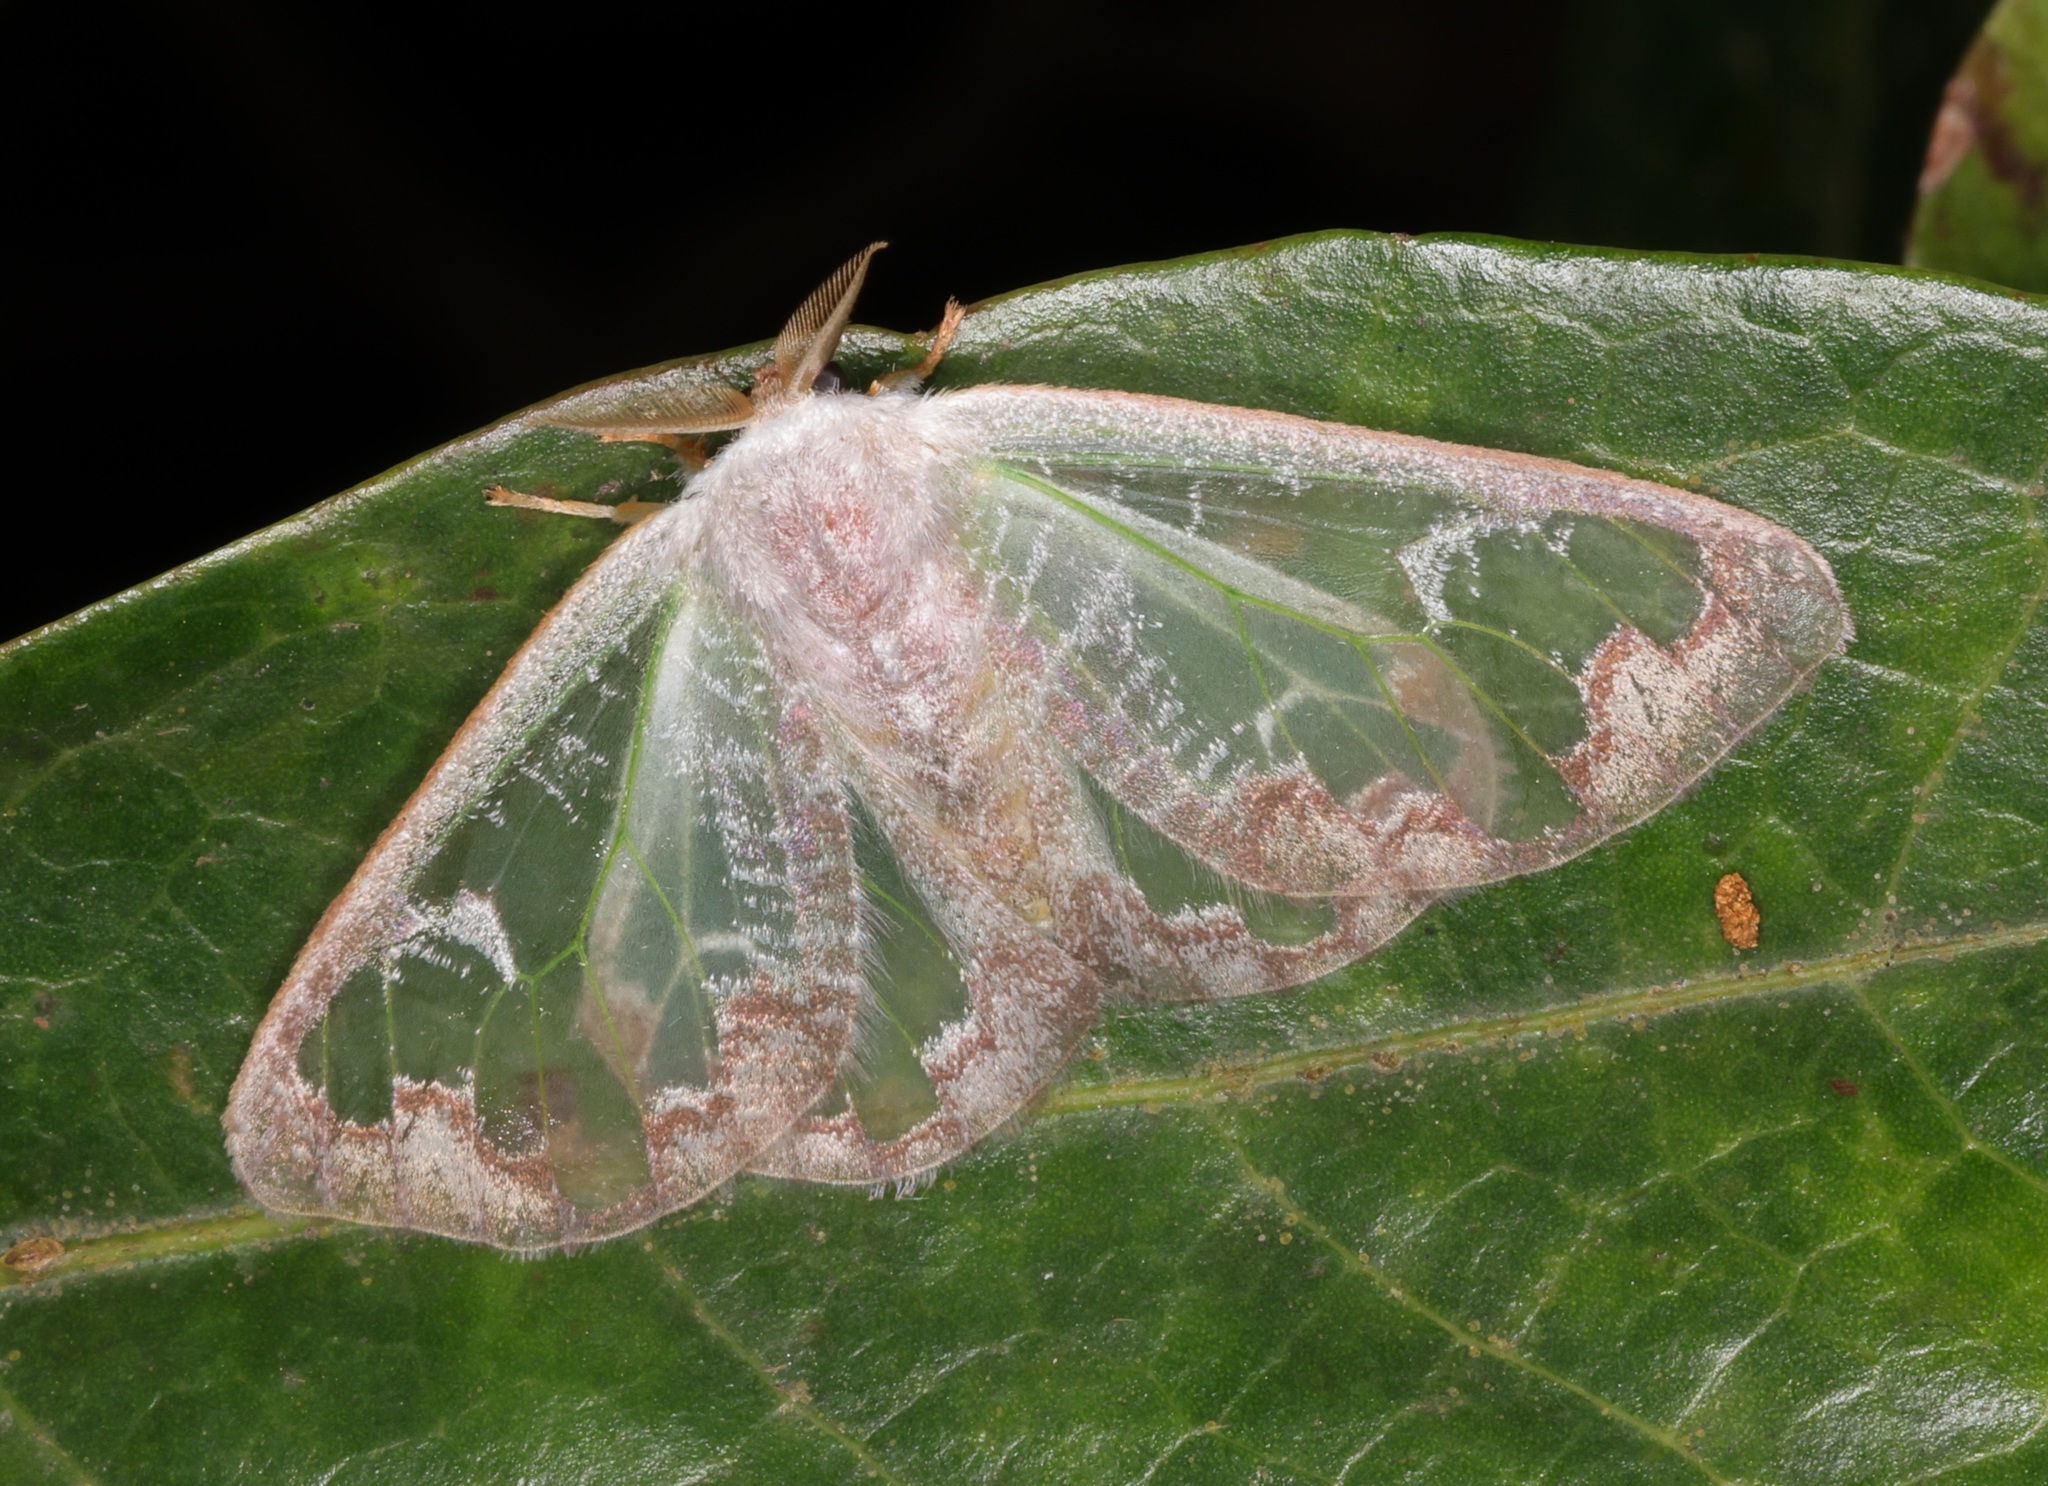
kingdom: Animalia
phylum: Arthropoda
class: Insecta
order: Lepidoptera
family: Erebidae
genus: Carriola
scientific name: Carriola seminsula
